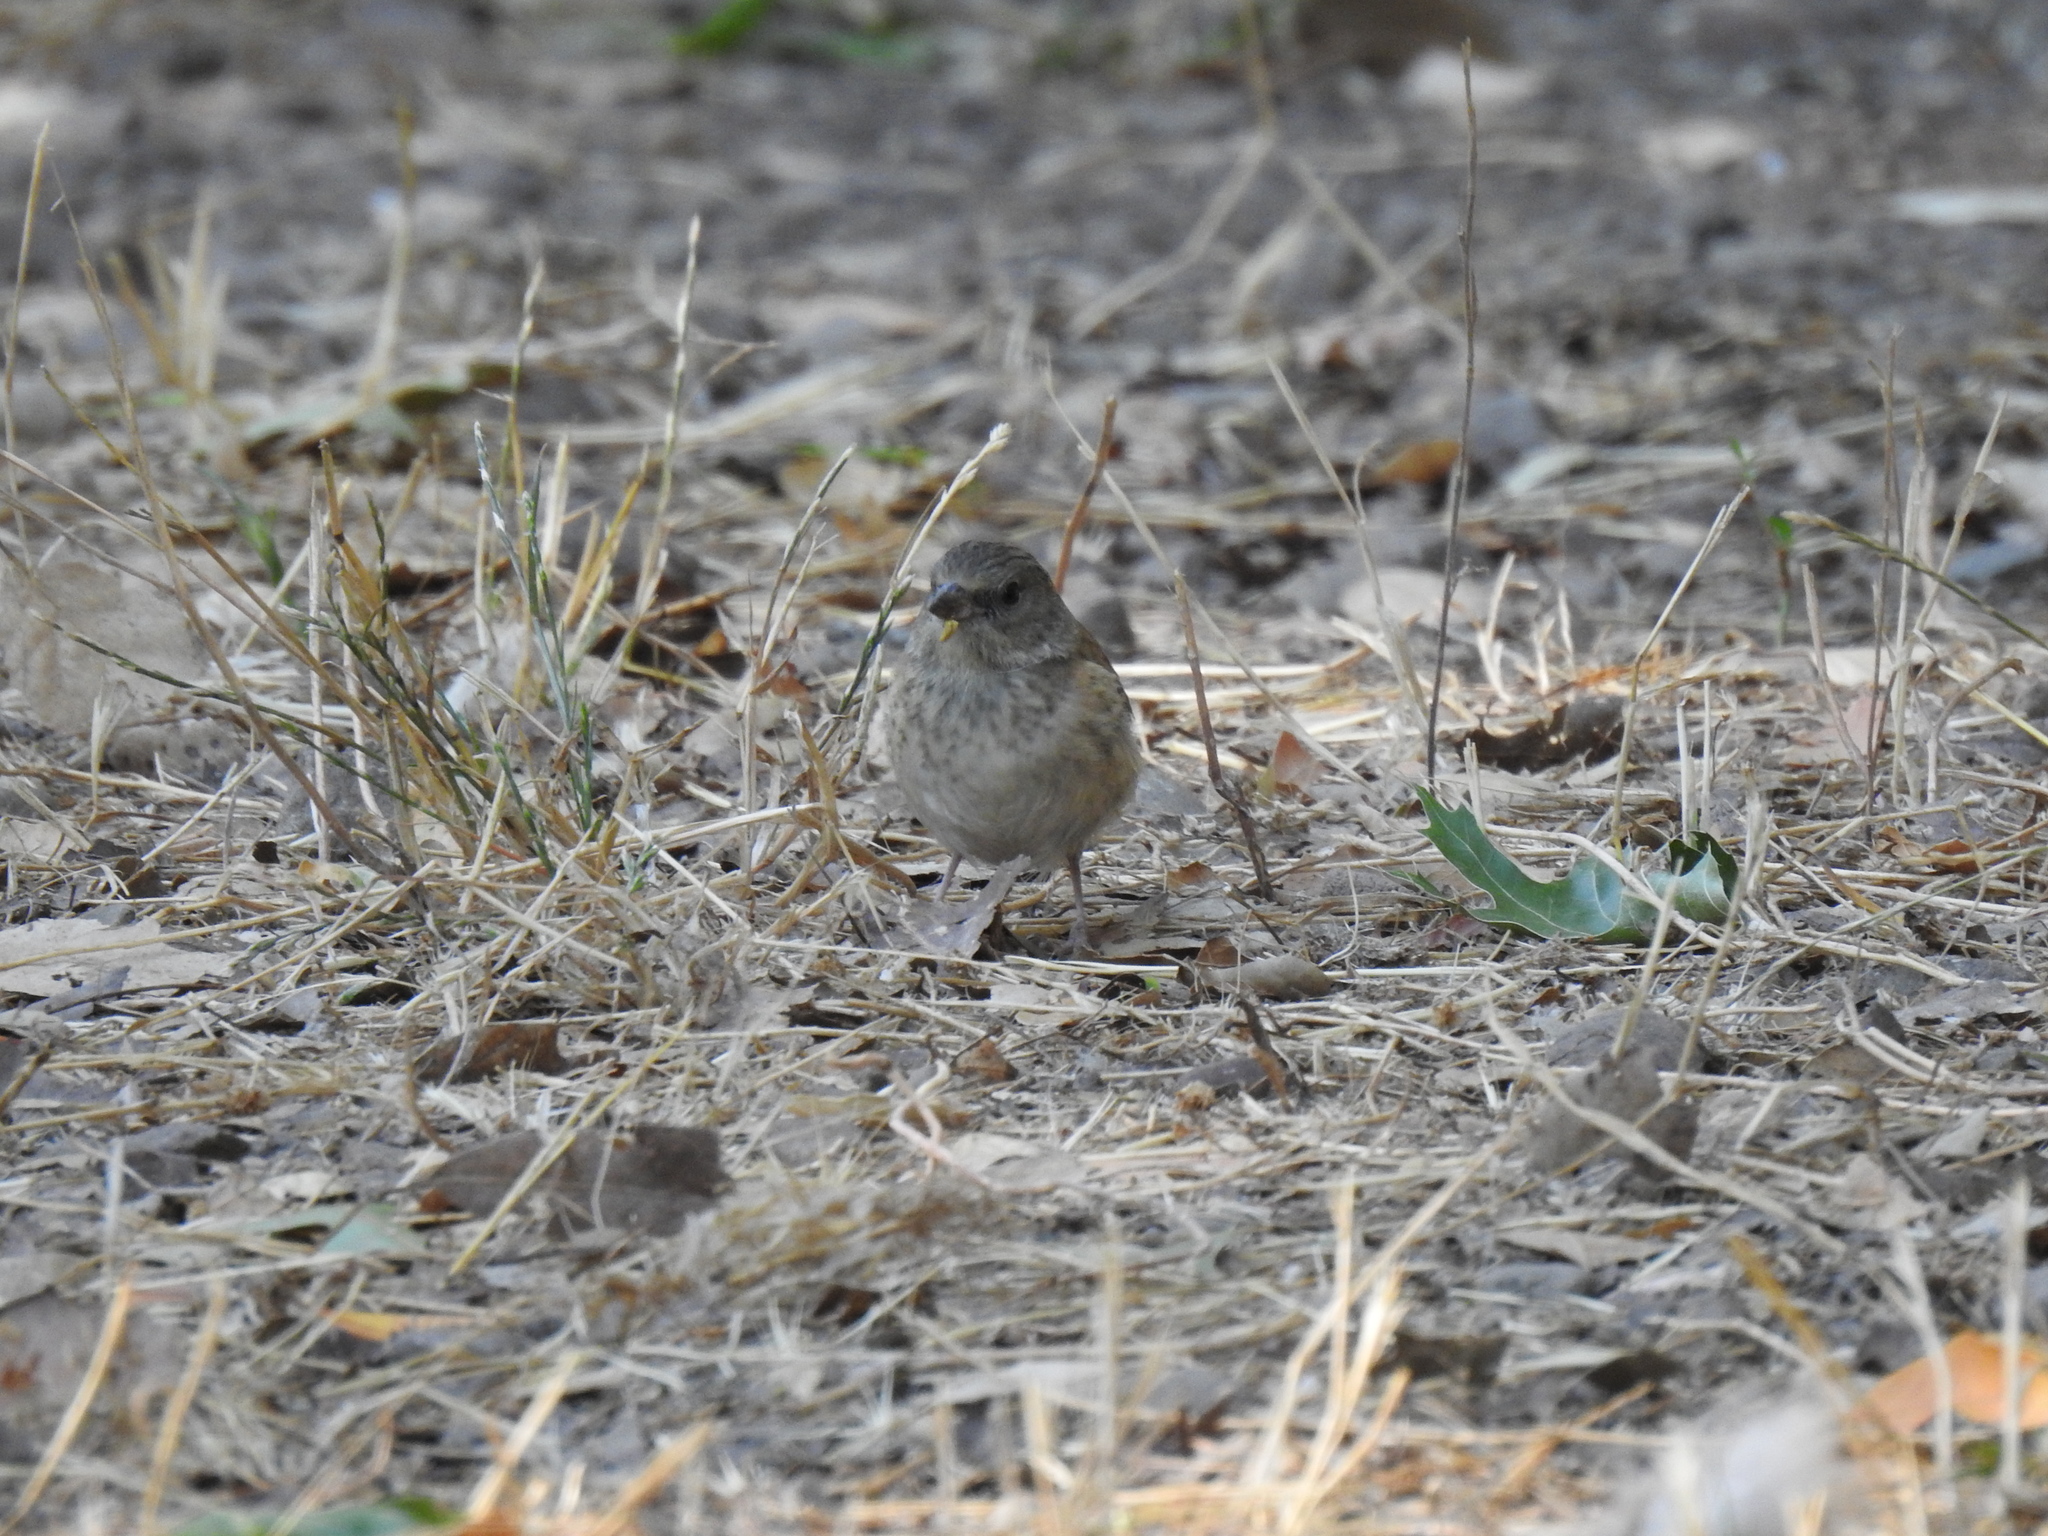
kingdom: Animalia
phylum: Chordata
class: Aves
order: Passeriformes
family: Turdidae
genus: Sialia
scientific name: Sialia mexicana
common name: Western bluebird
